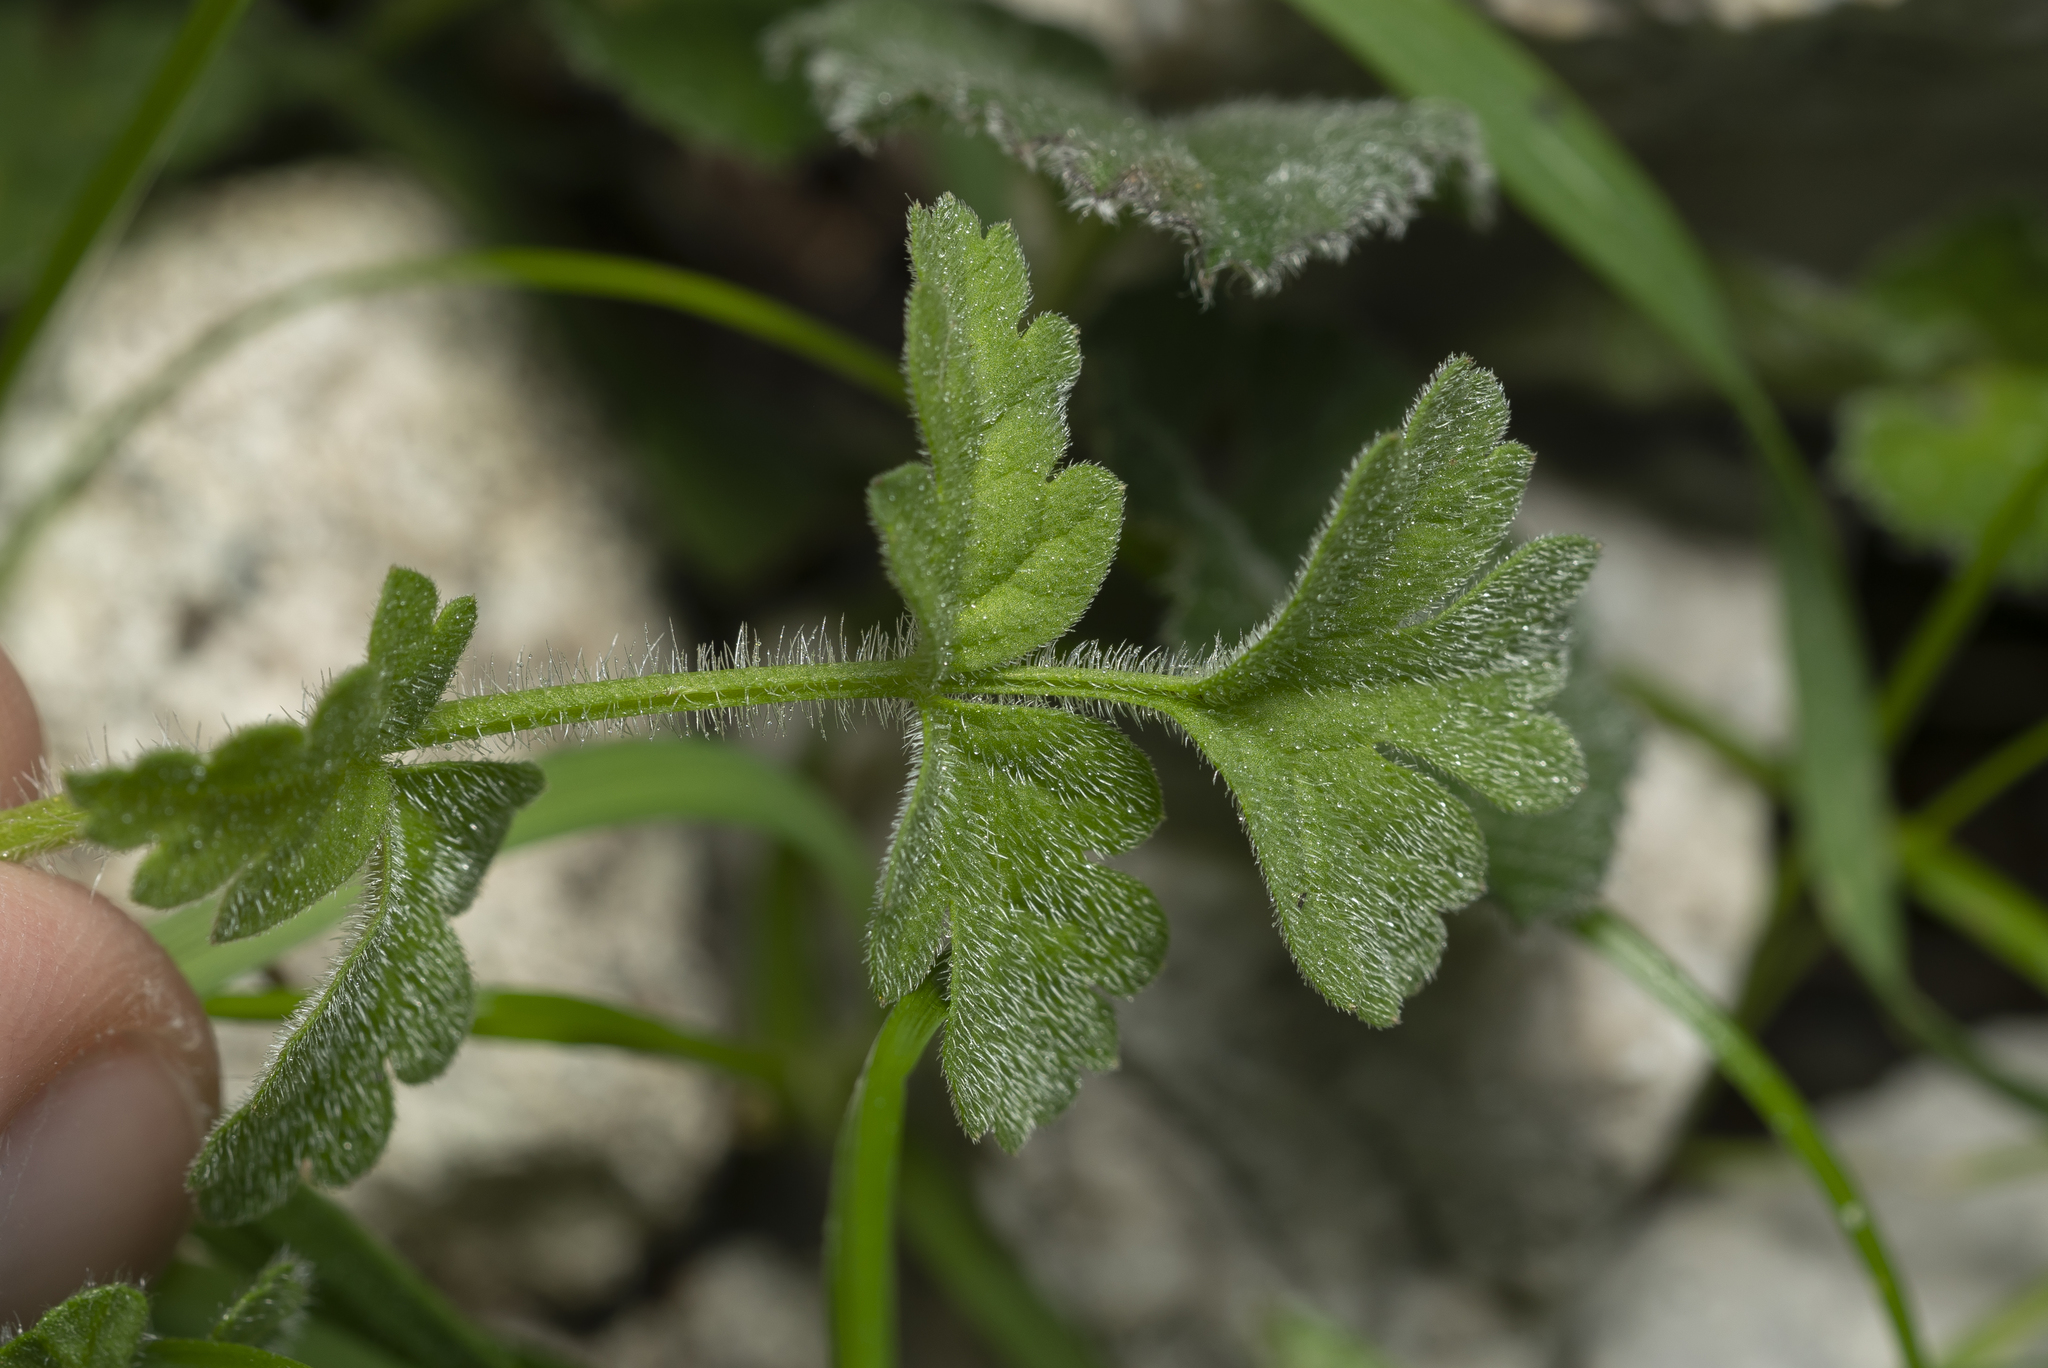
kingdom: Plantae
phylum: Tracheophyta
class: Magnoliopsida
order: Apiales
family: Apiaceae
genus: Tordylium
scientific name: Tordylium apulum
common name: Mediterranean hartwort
